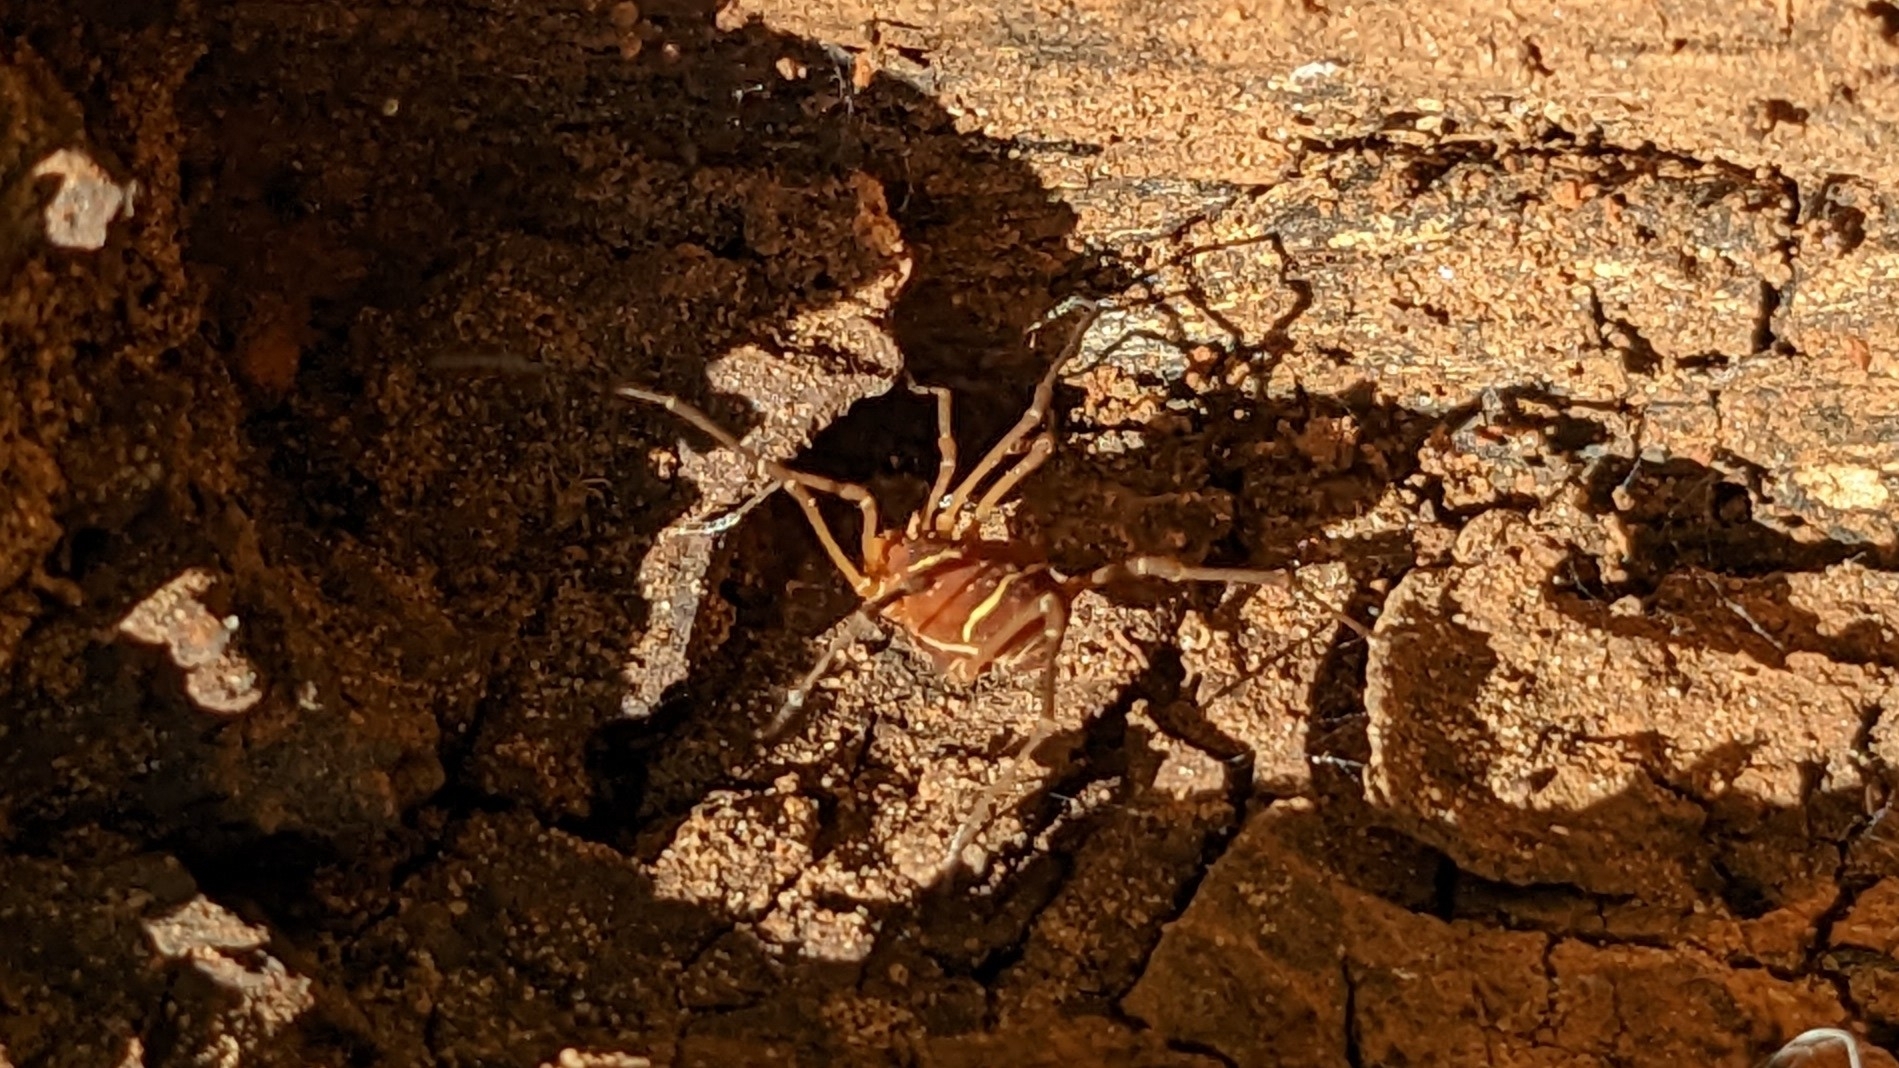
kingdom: Animalia
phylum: Arthropoda
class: Arachnida
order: Opiliones
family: Cosmetidae
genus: Libitioides
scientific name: Libitioides sayi
